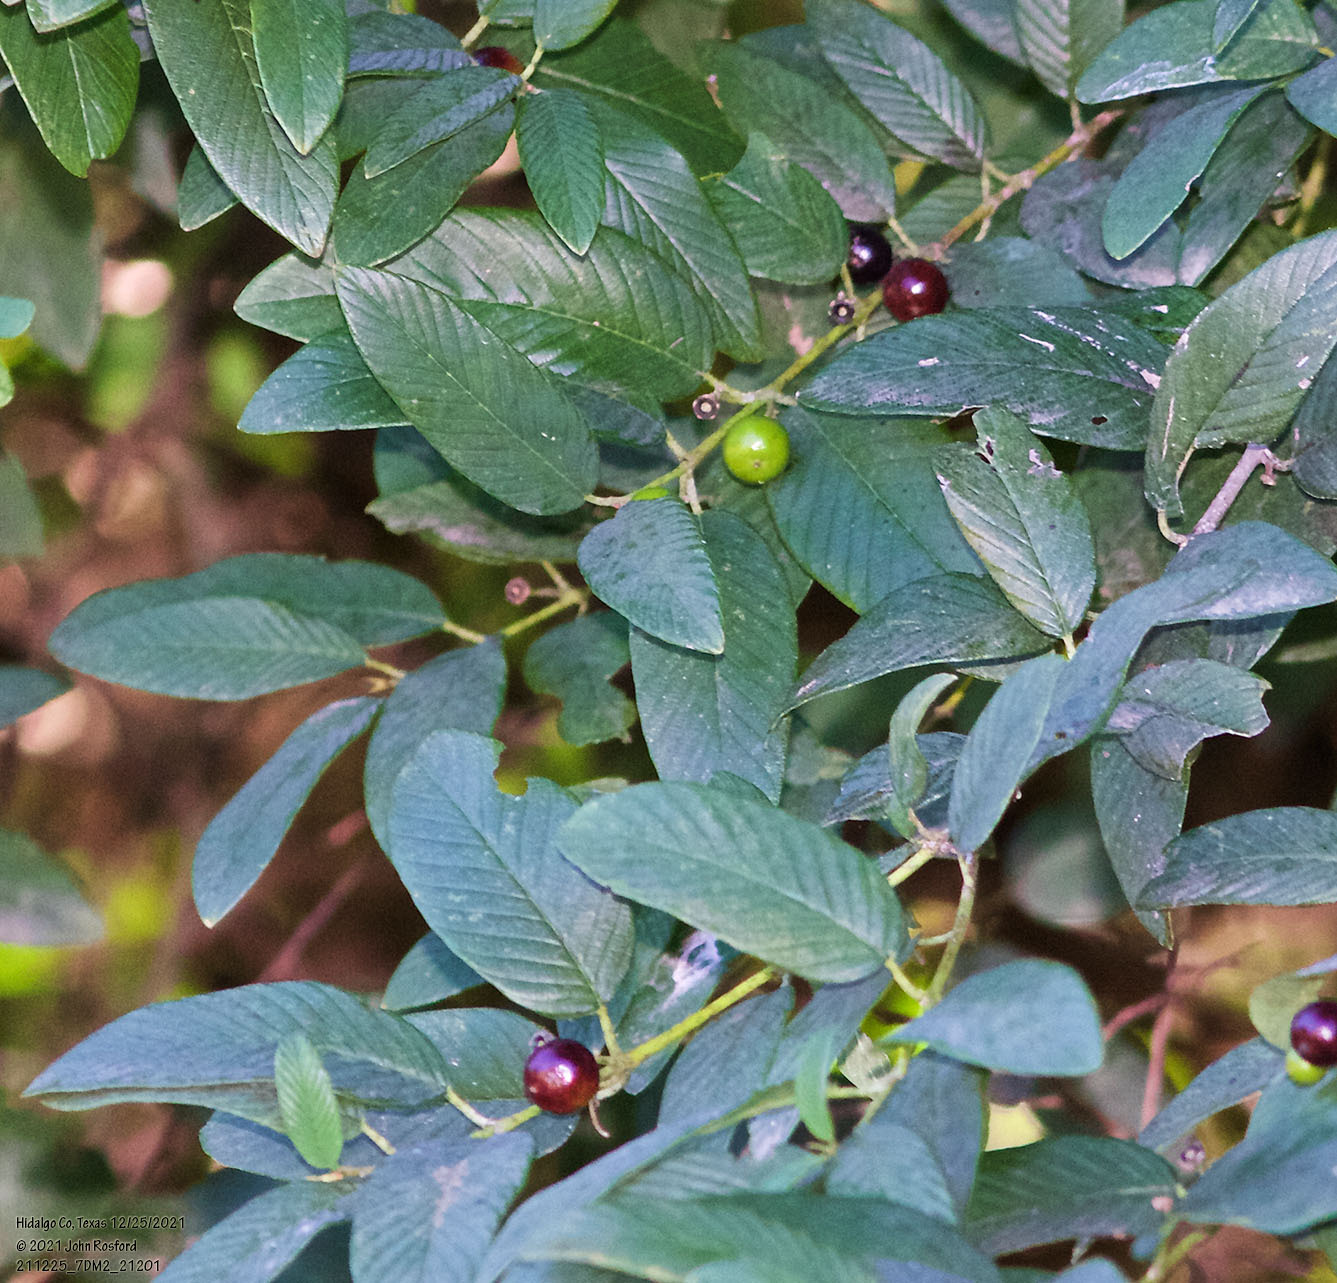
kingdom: Plantae
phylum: Tracheophyta
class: Magnoliopsida
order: Rosales
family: Rhamnaceae
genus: Karwinskia
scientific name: Karwinskia humboldtiana
